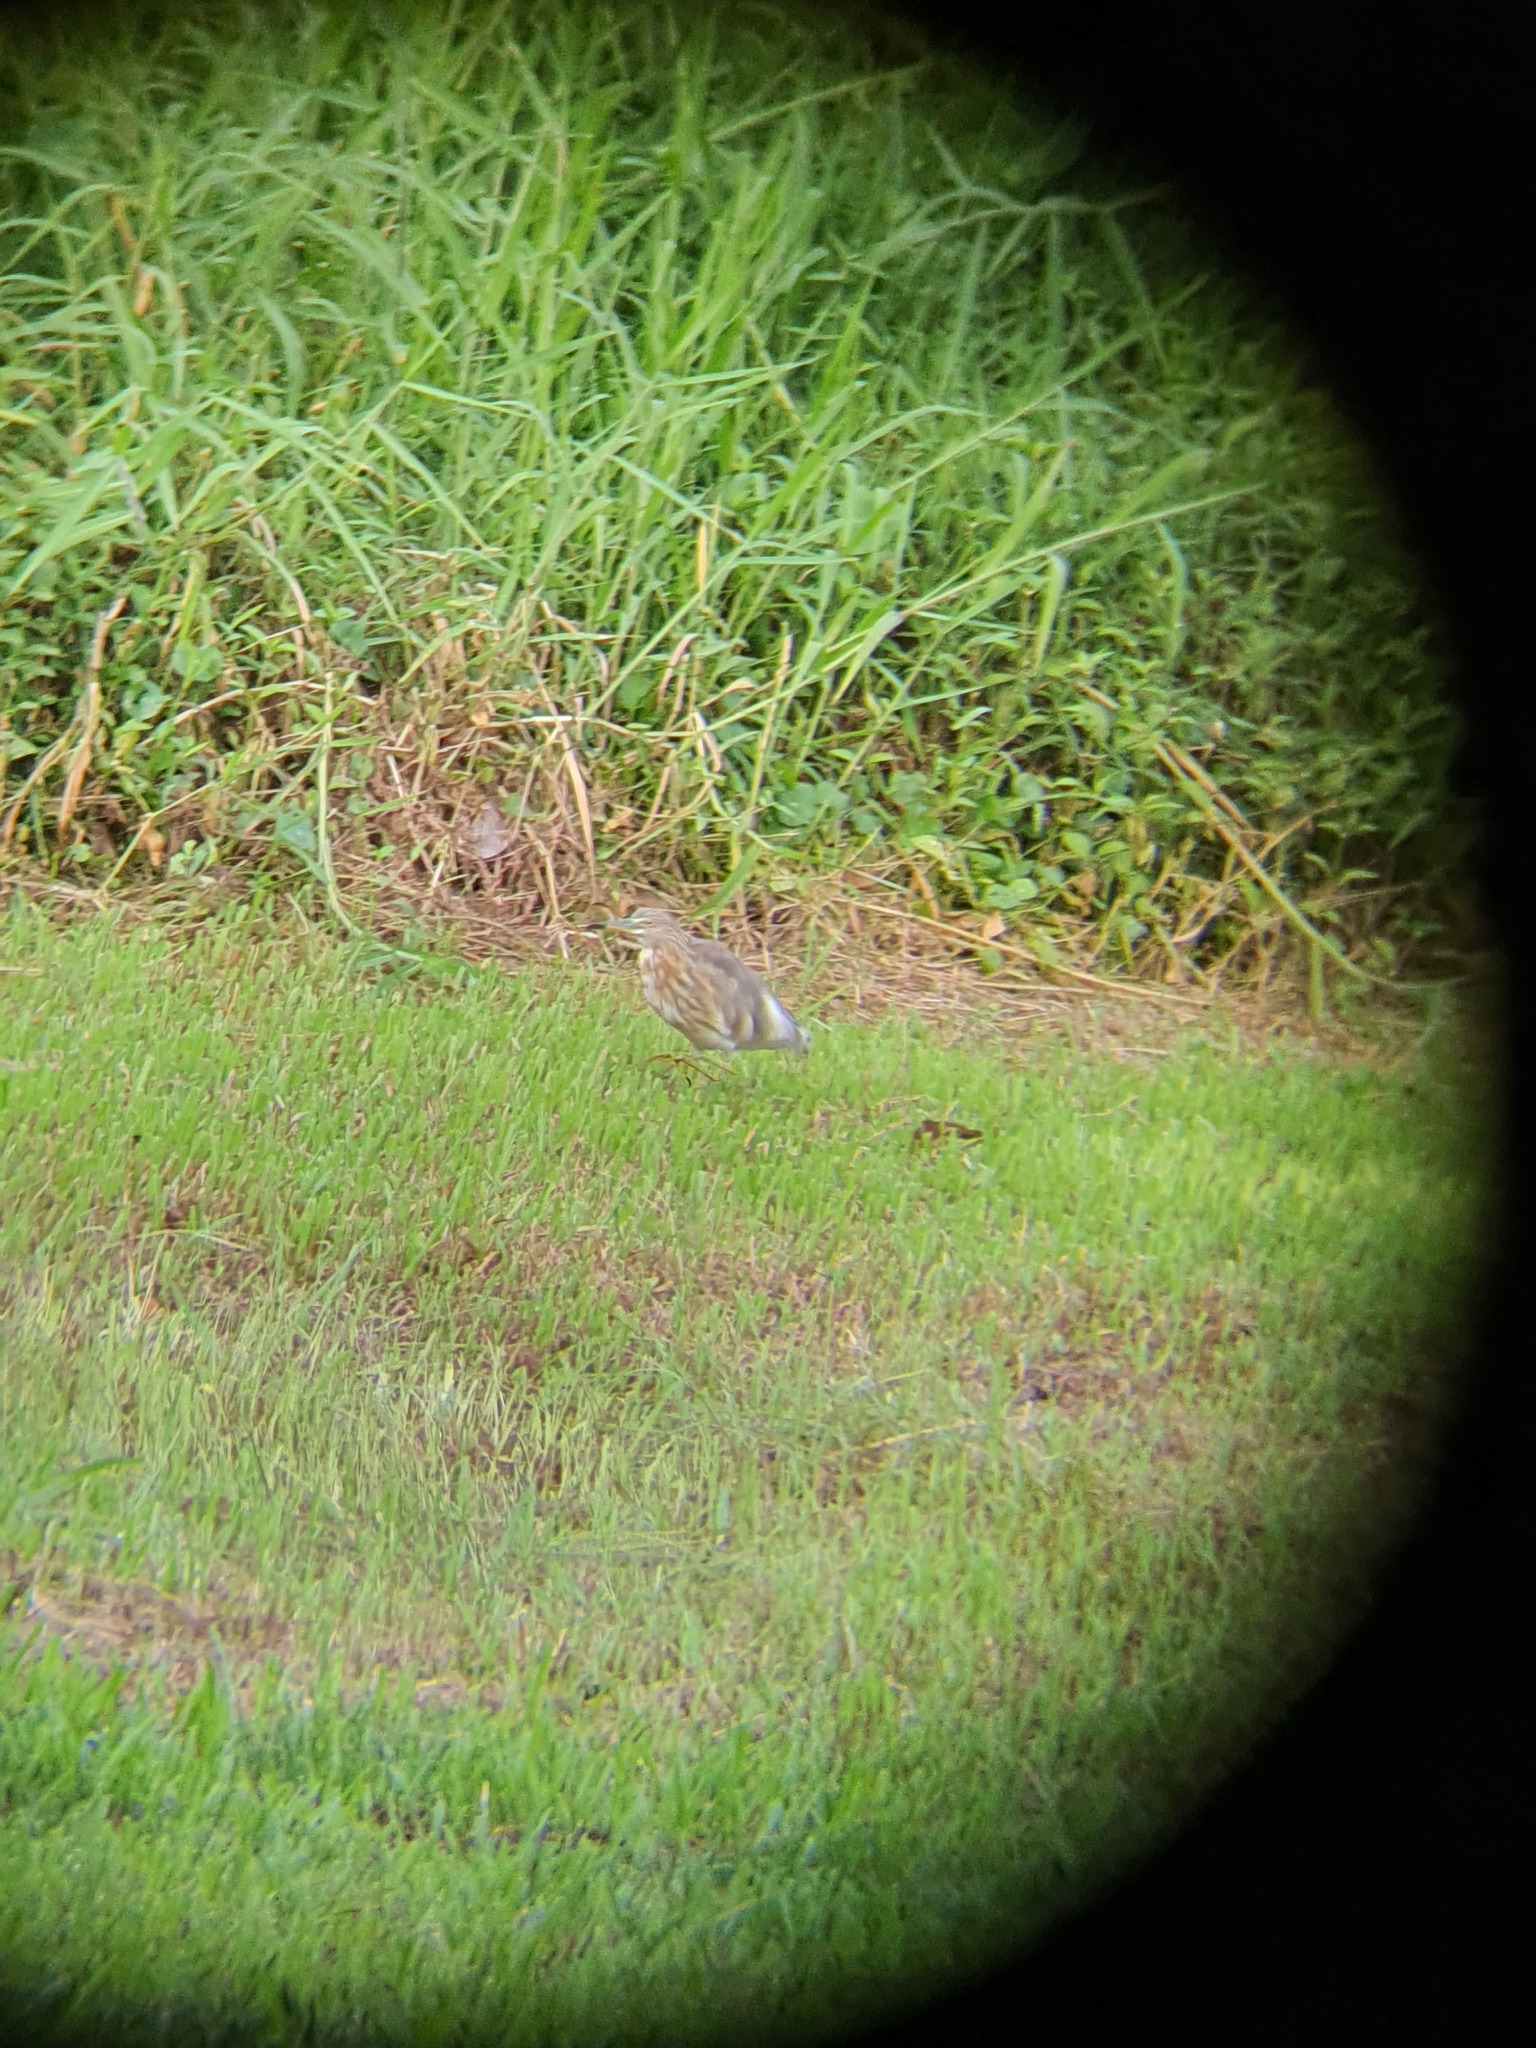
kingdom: Animalia
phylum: Chordata
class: Aves
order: Pelecaniformes
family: Ardeidae
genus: Ardeola
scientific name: Ardeola
